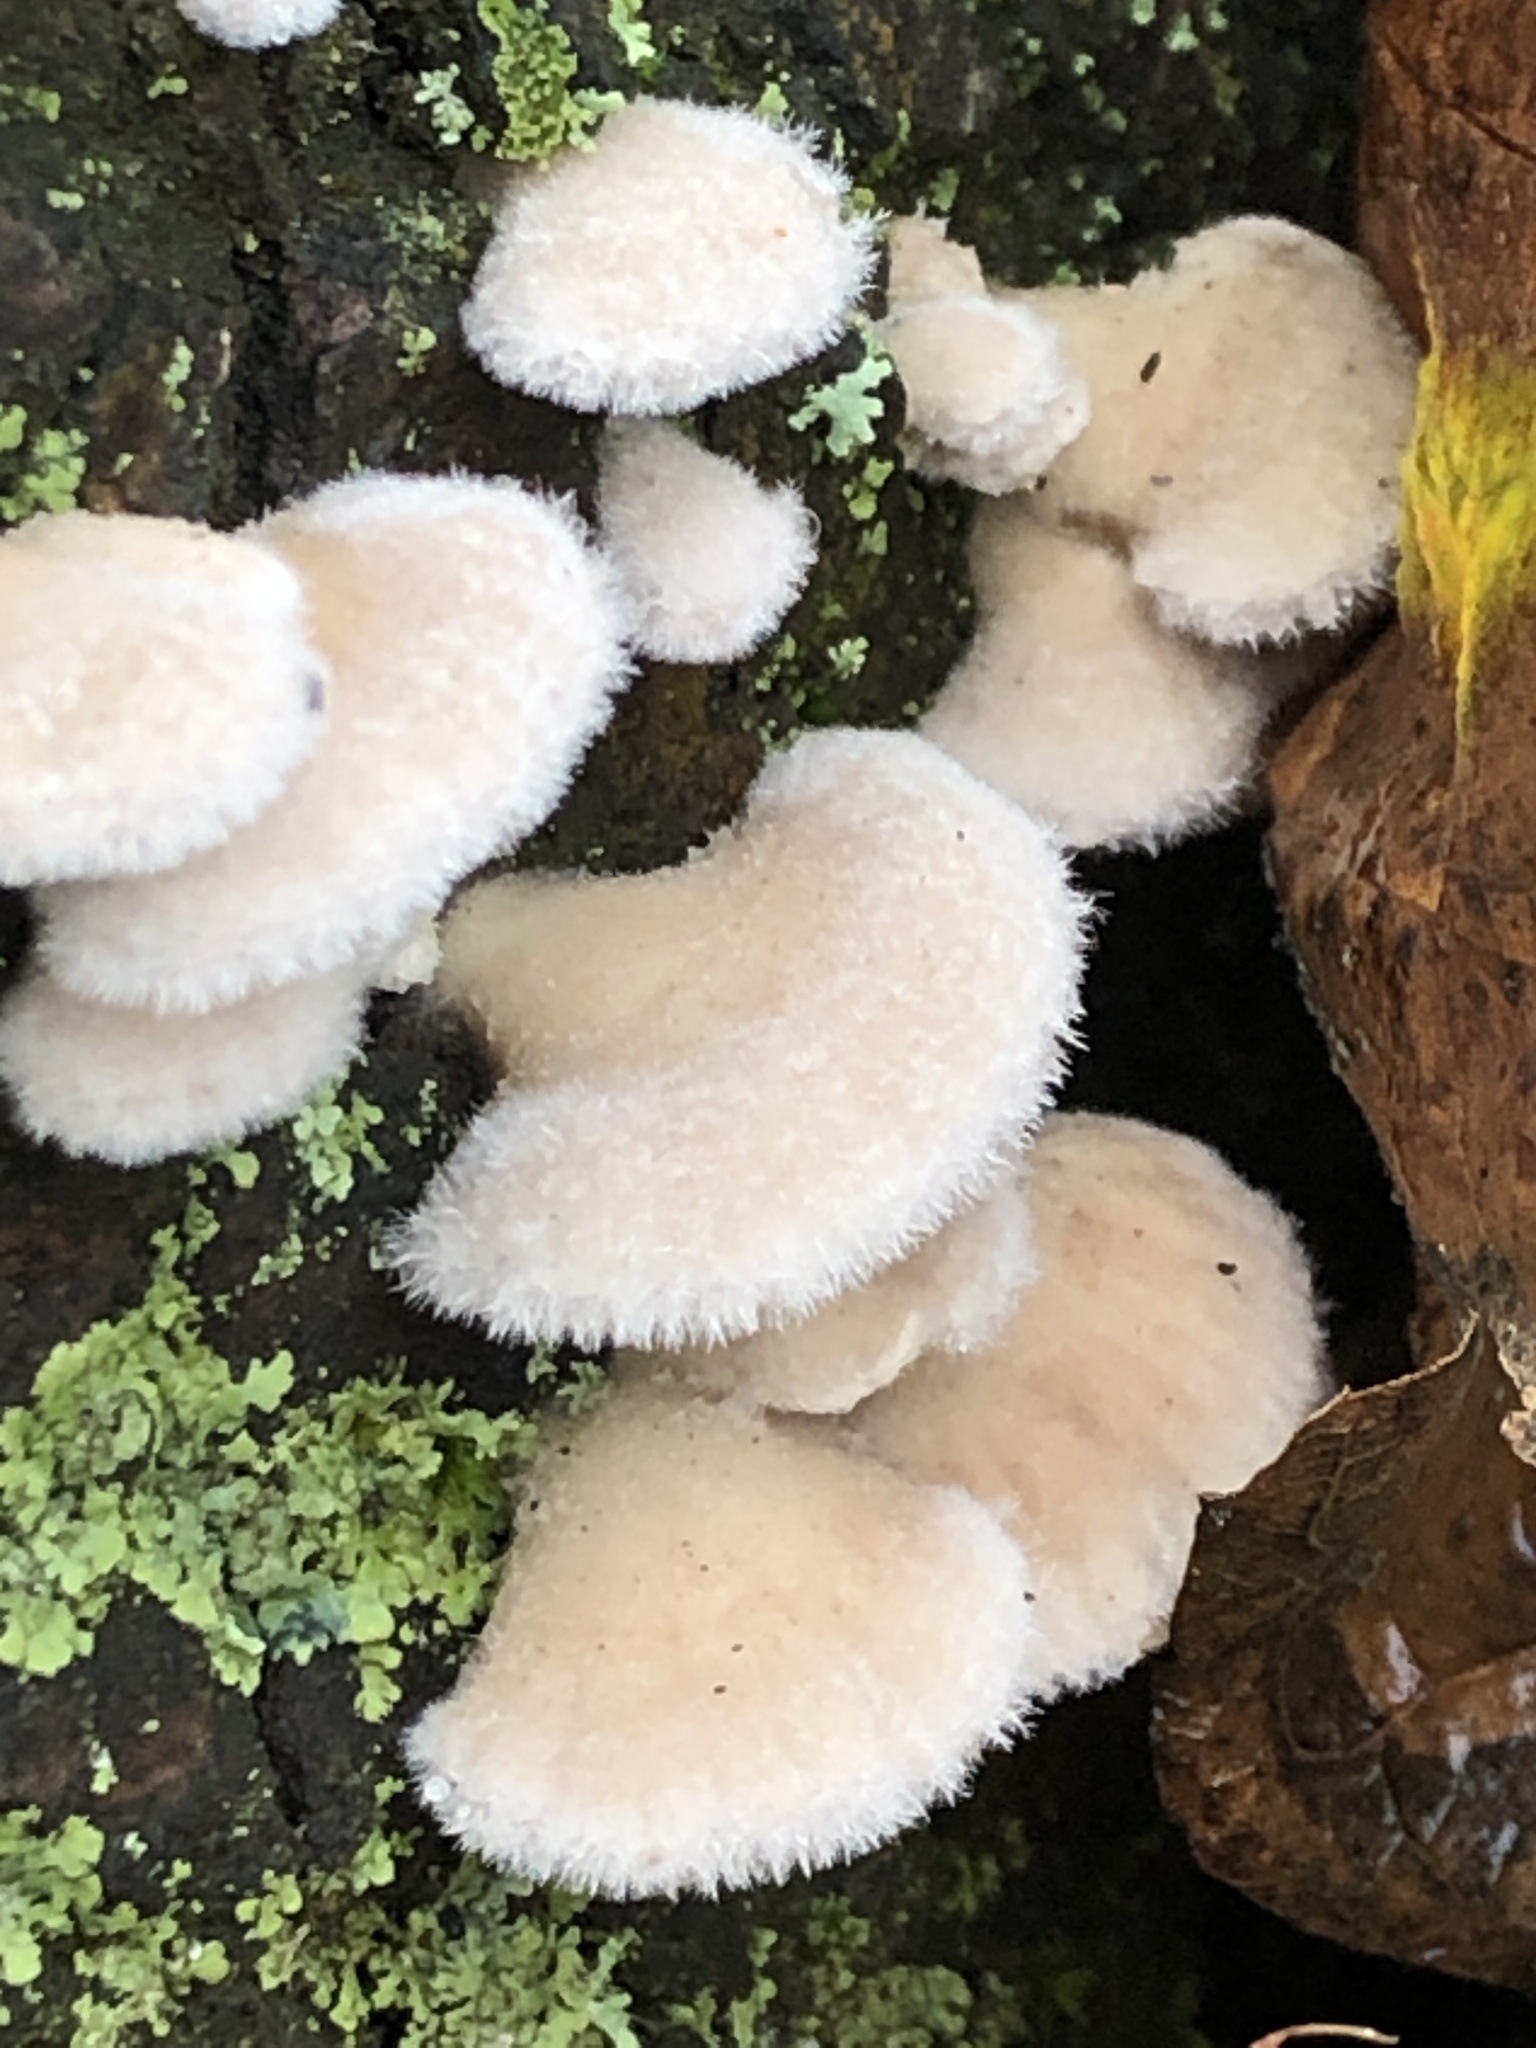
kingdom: Fungi
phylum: Basidiomycota
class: Agaricomycetes
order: Agaricales
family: Schizophyllaceae
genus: Schizophyllum
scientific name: Schizophyllum commune
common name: Common porecrust
